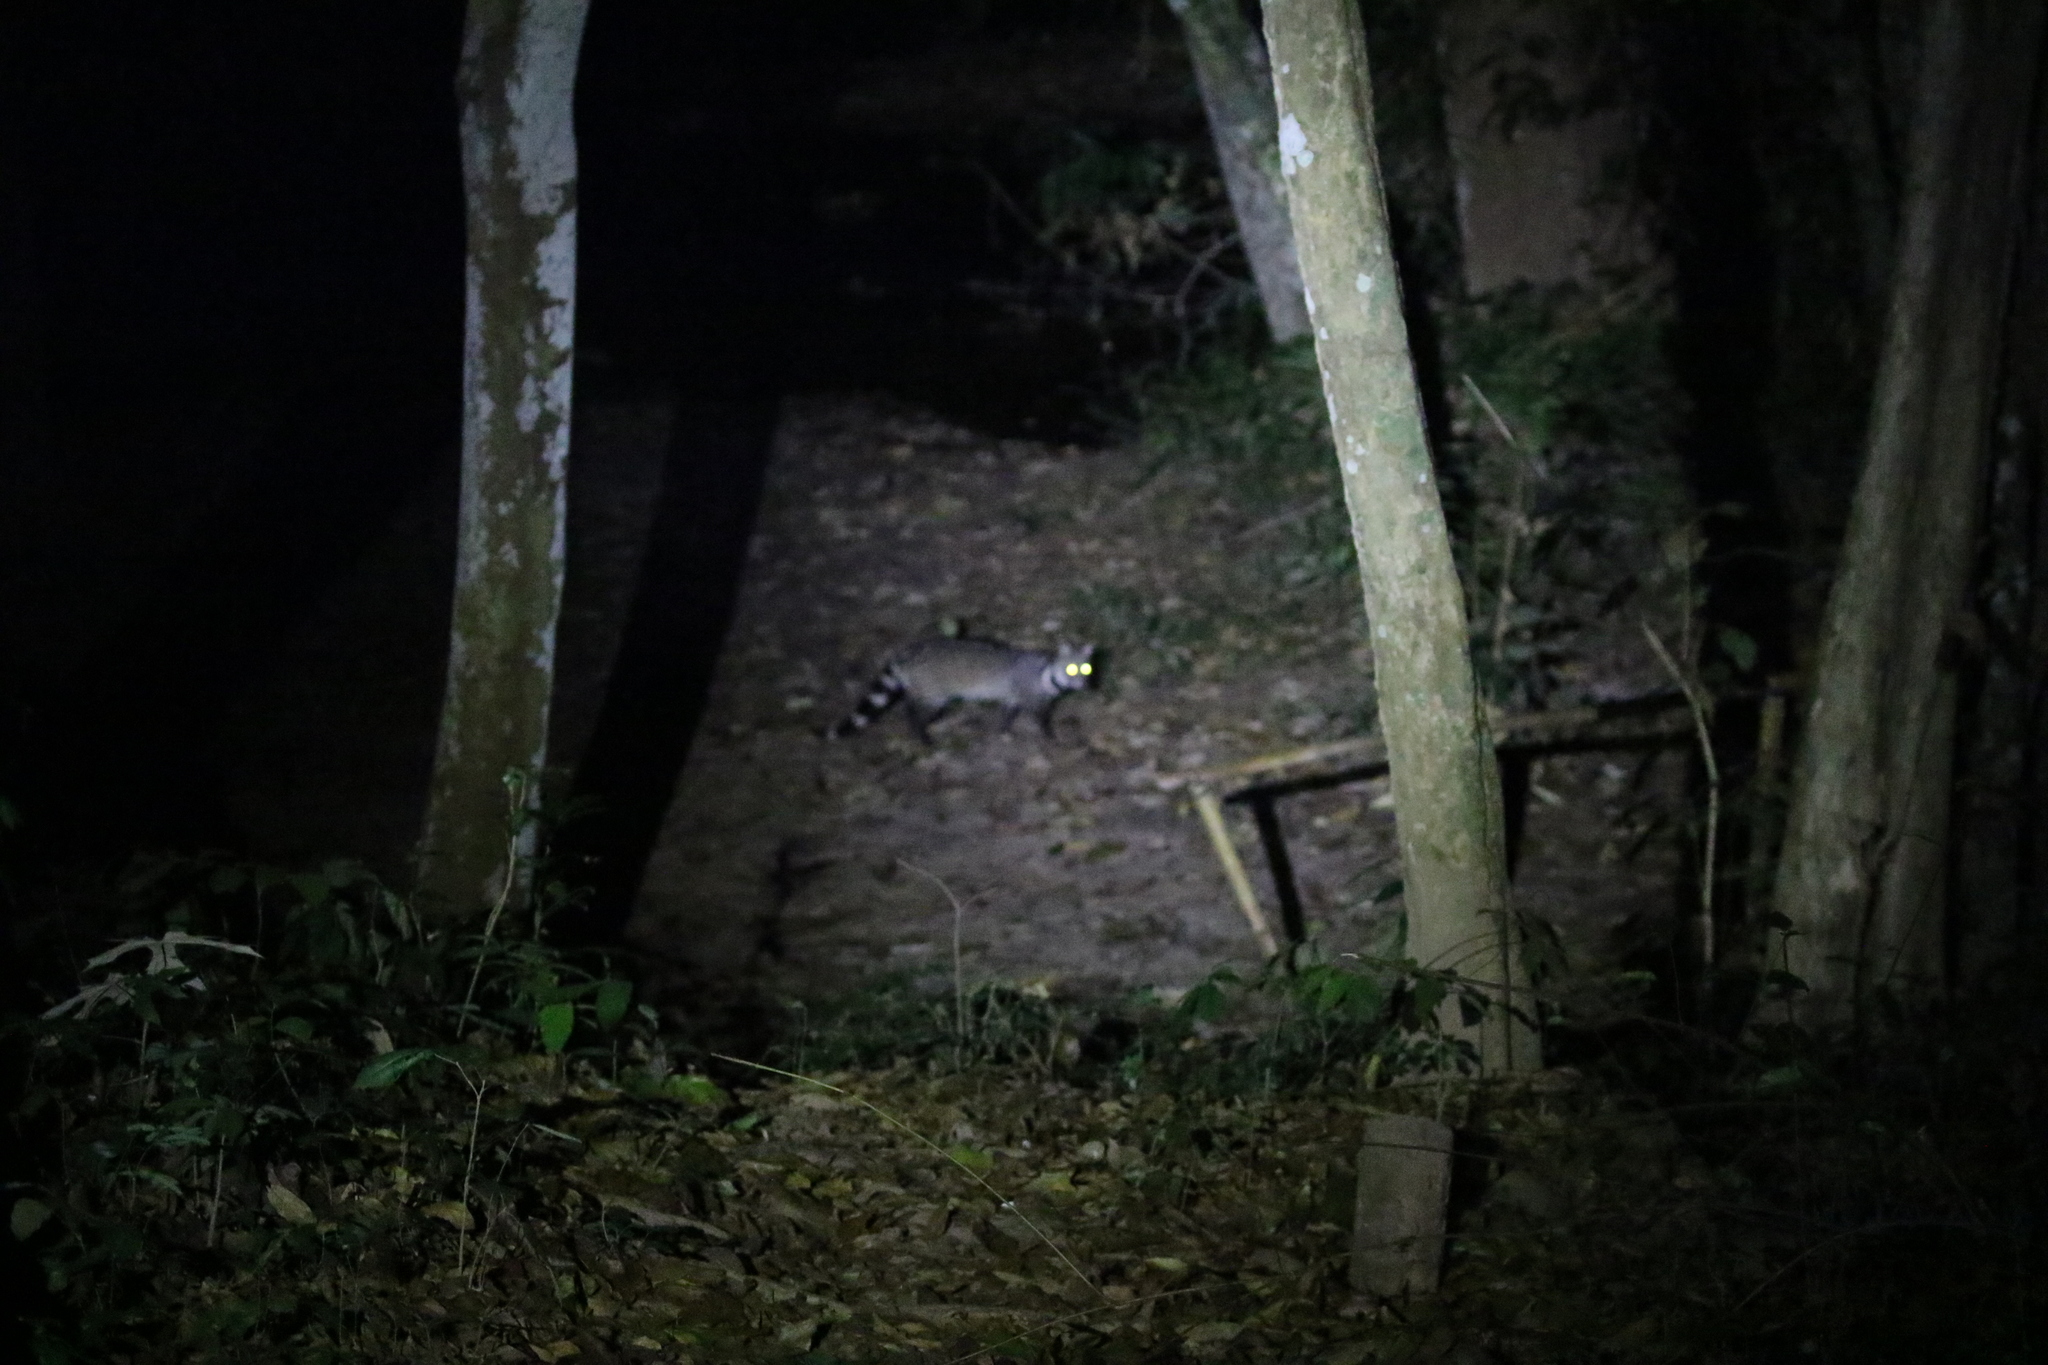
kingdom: Animalia
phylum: Chordata
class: Mammalia
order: Carnivora
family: Viverridae
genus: Viverra
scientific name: Viverra zibetha
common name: Large indian civet
